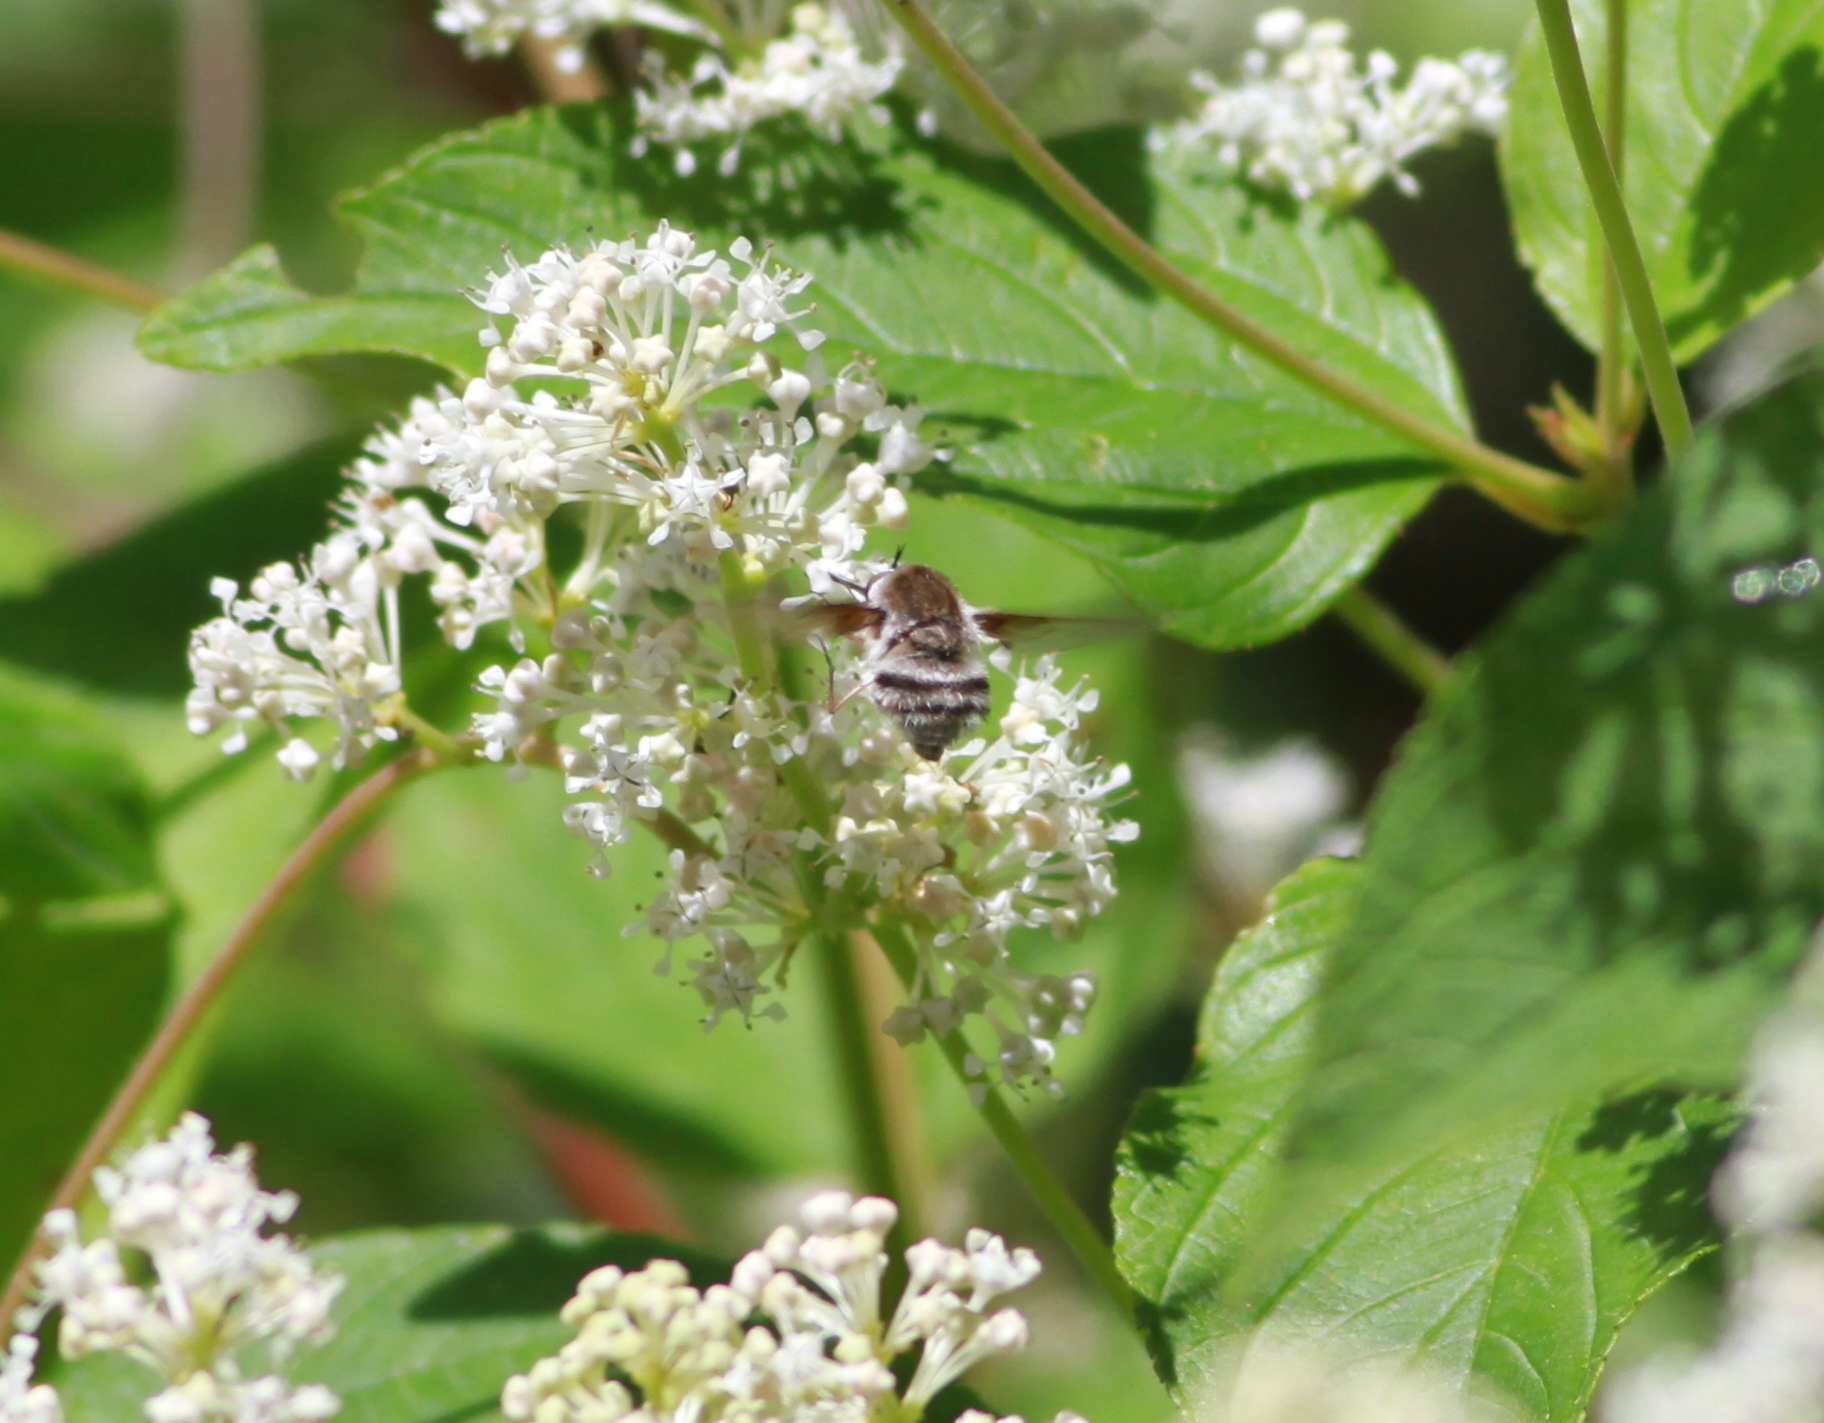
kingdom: Animalia
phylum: Arthropoda
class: Insecta
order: Diptera
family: Bombyliidae
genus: Bombylius
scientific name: Bombylius incanus
